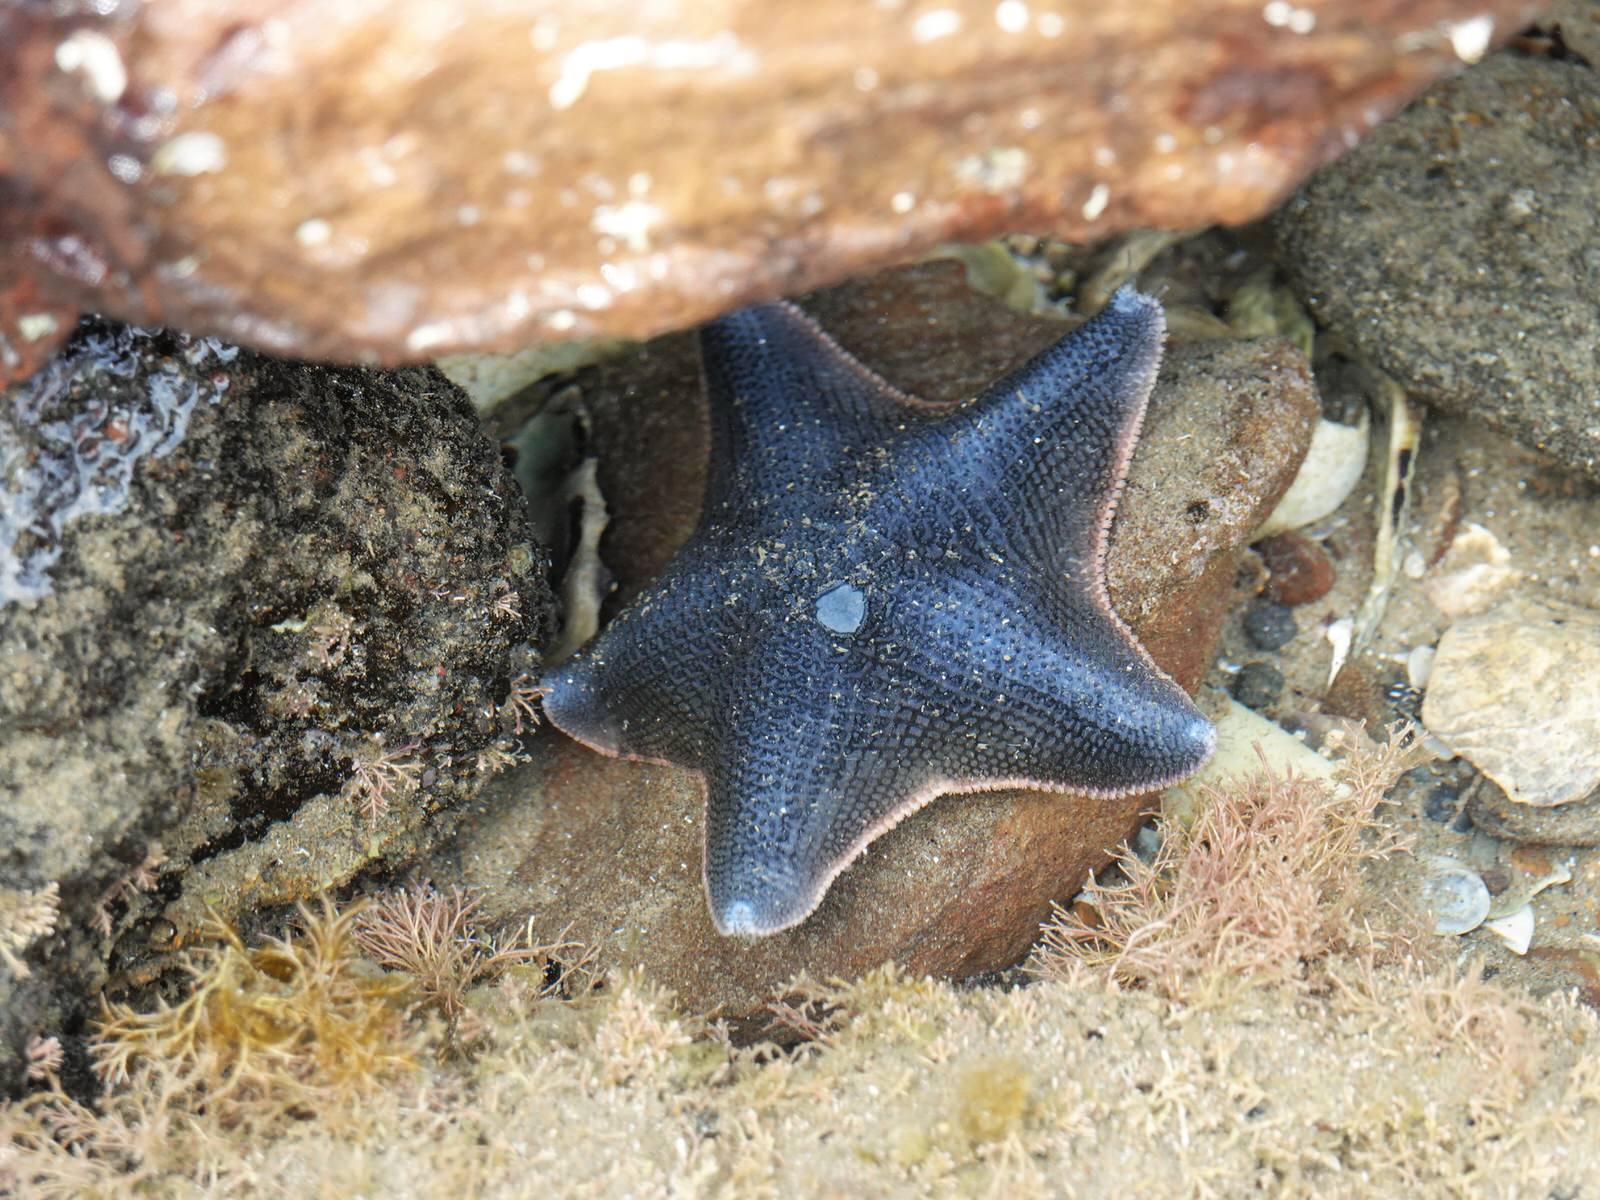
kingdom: Animalia
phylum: Echinodermata
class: Asteroidea
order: Valvatida
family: Asterinidae
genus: Patiriella
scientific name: Patiriella regularis
